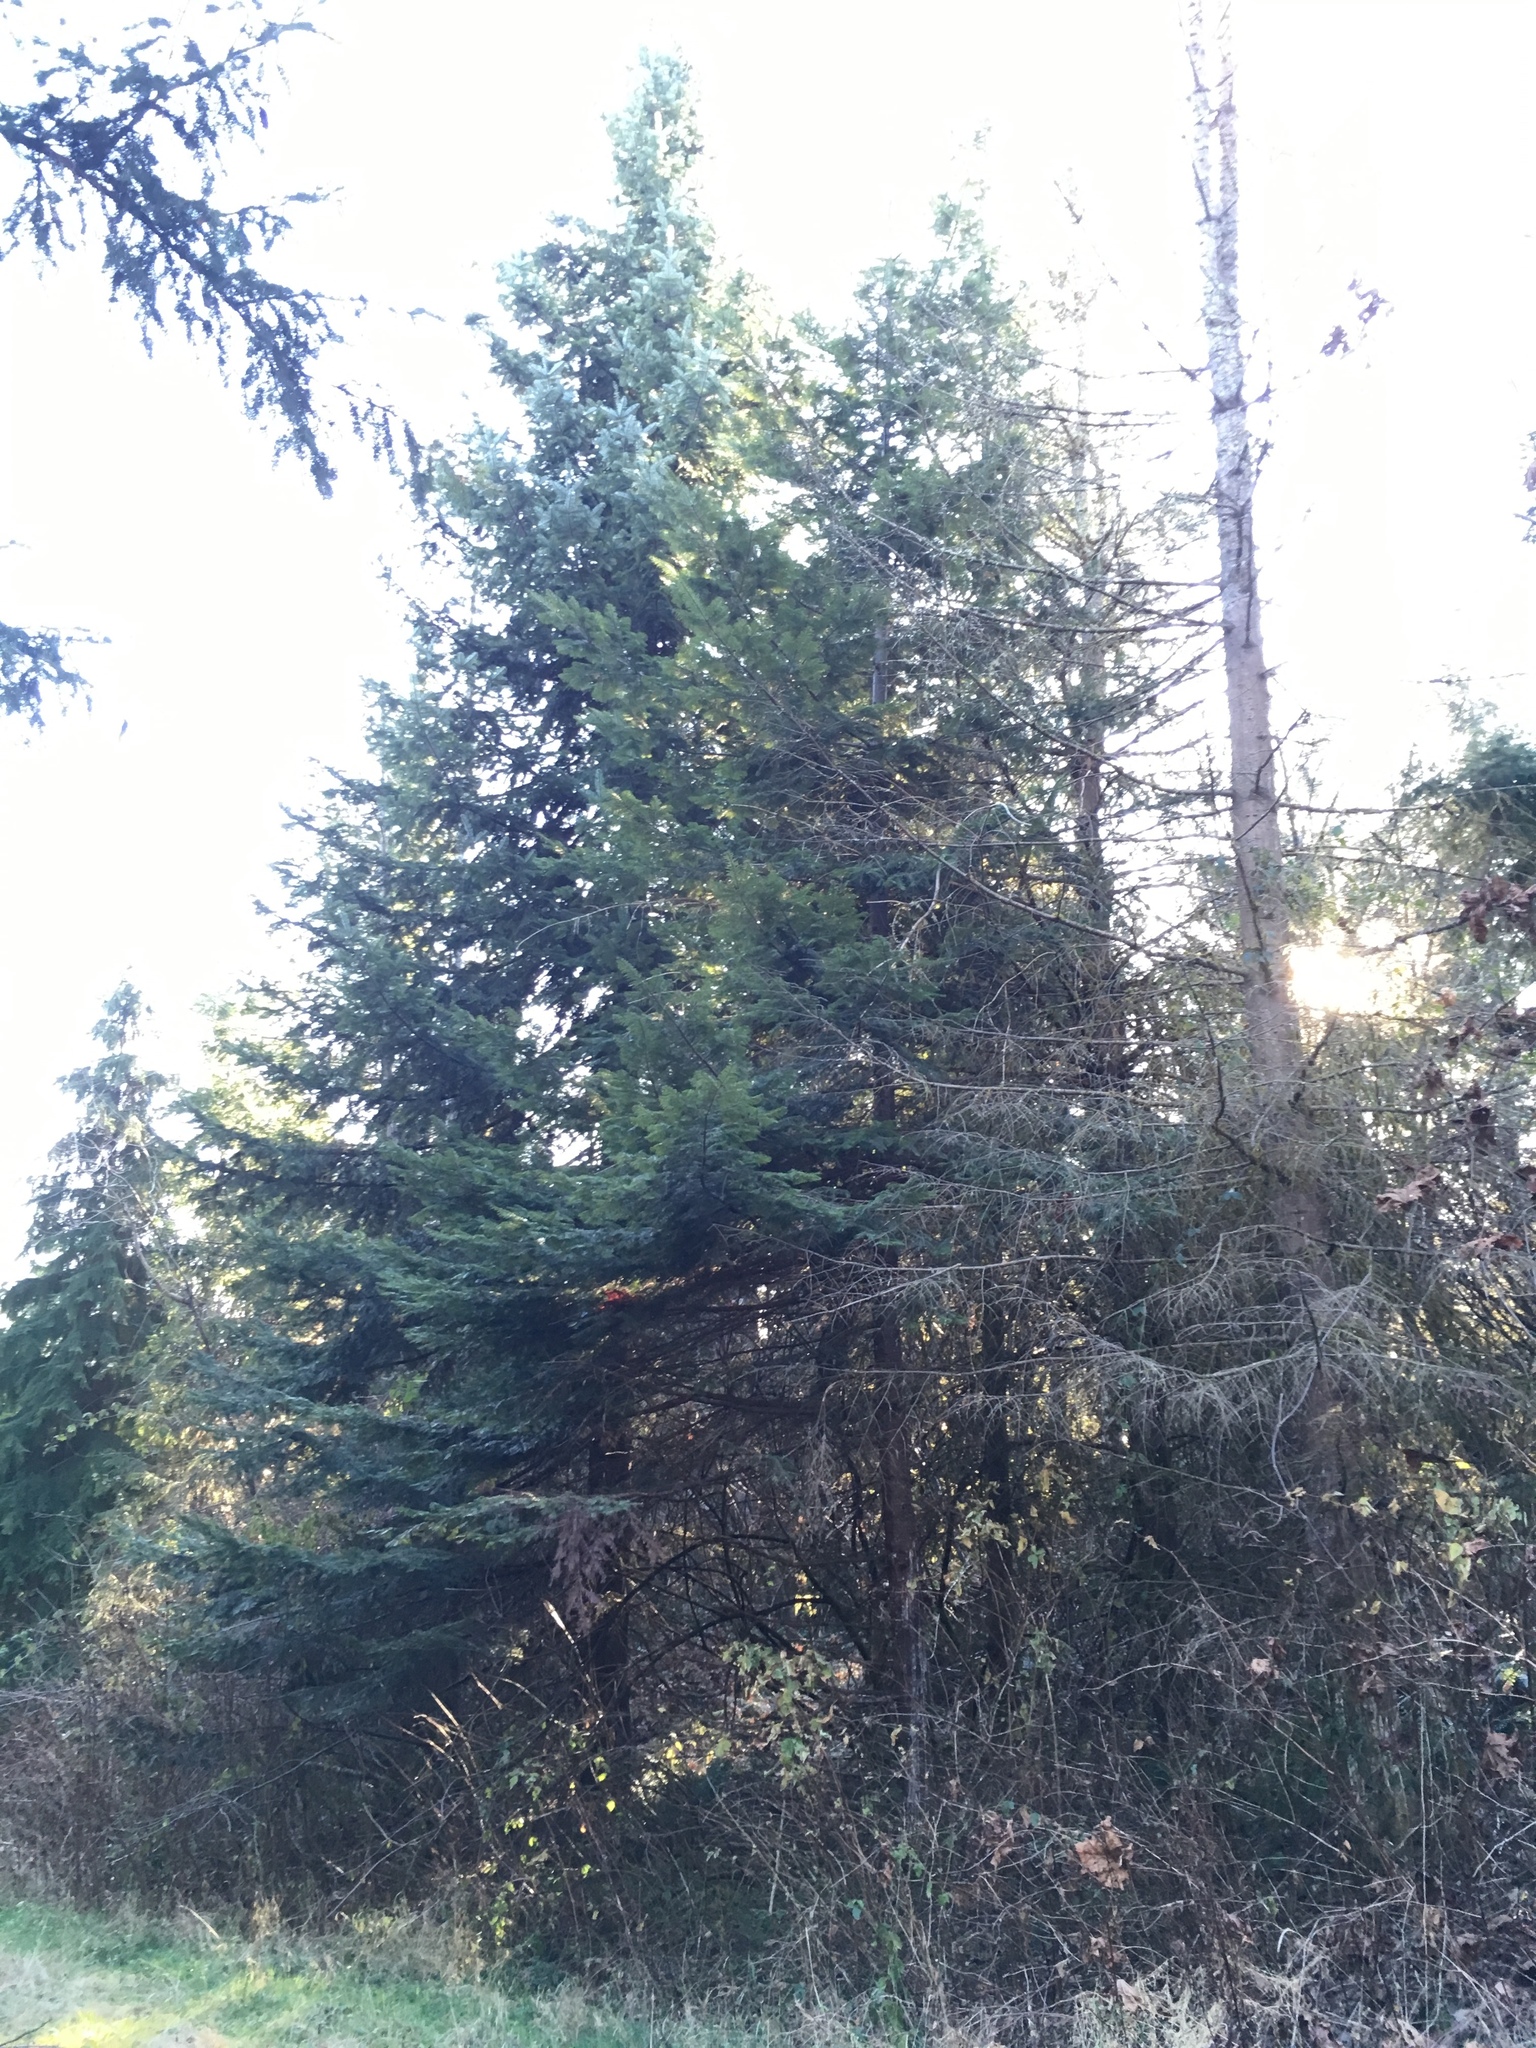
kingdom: Plantae
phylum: Tracheophyta
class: Pinopsida
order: Pinales
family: Pinaceae
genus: Abies
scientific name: Abies grandis
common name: Giant fir
